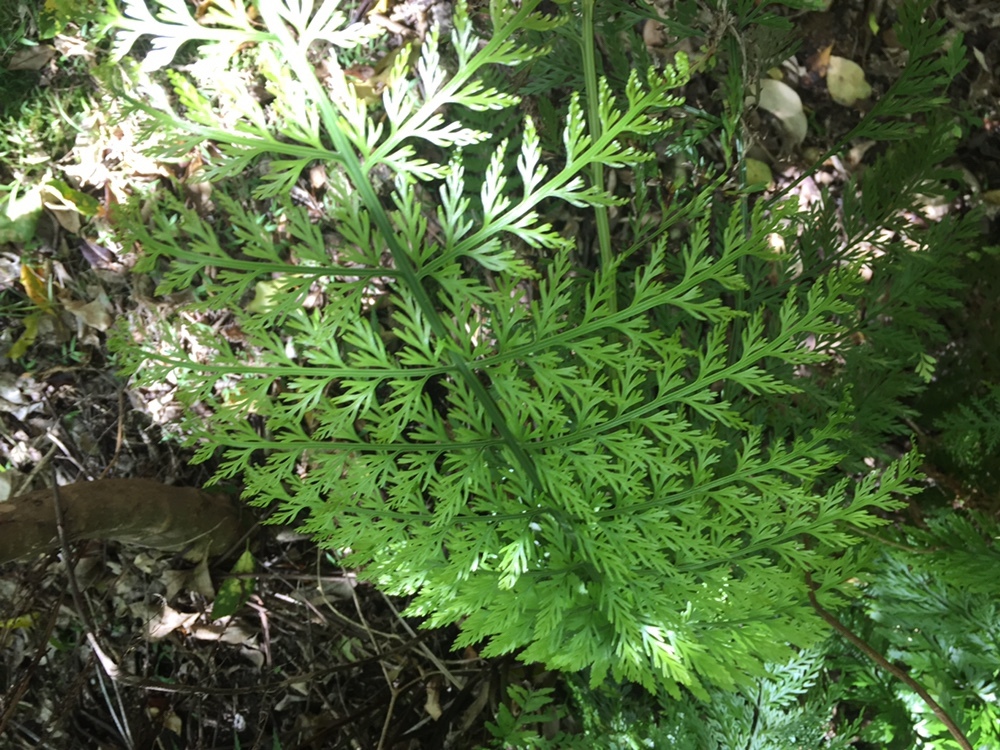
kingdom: Plantae
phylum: Tracheophyta
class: Polypodiopsida
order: Polypodiales
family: Aspleniaceae
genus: Asplenium
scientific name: Asplenium lucrosum
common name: False hen-and-chickens fern
